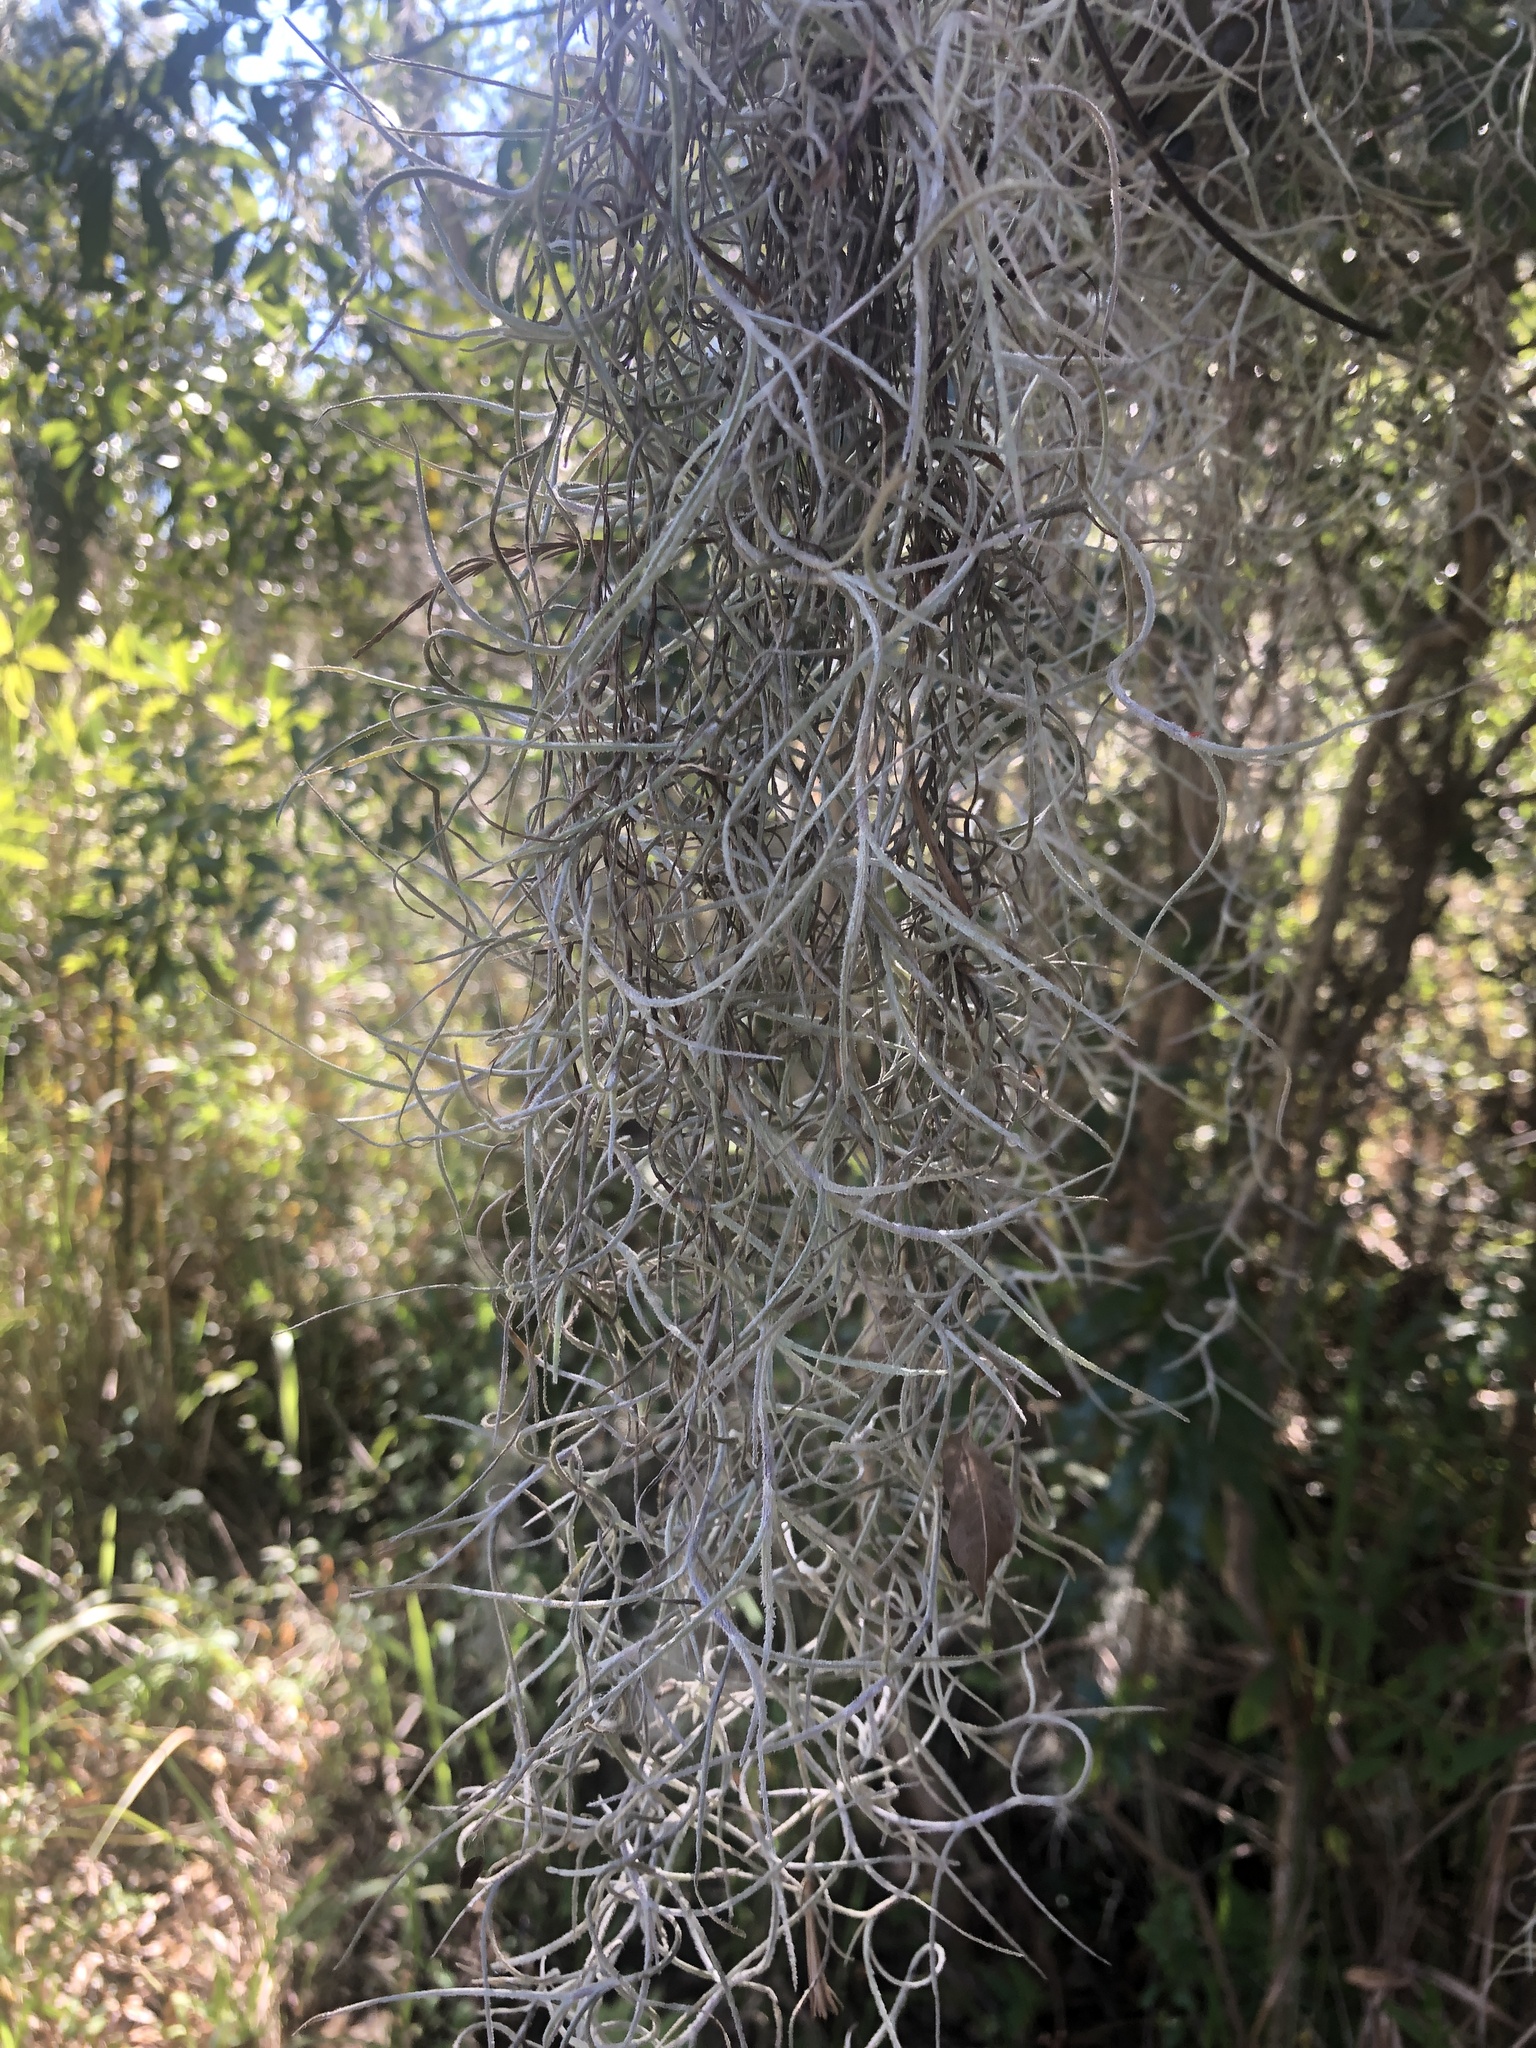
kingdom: Plantae
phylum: Tracheophyta
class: Liliopsida
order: Poales
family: Bromeliaceae
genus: Tillandsia
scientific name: Tillandsia usneoides
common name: Spanish moss
